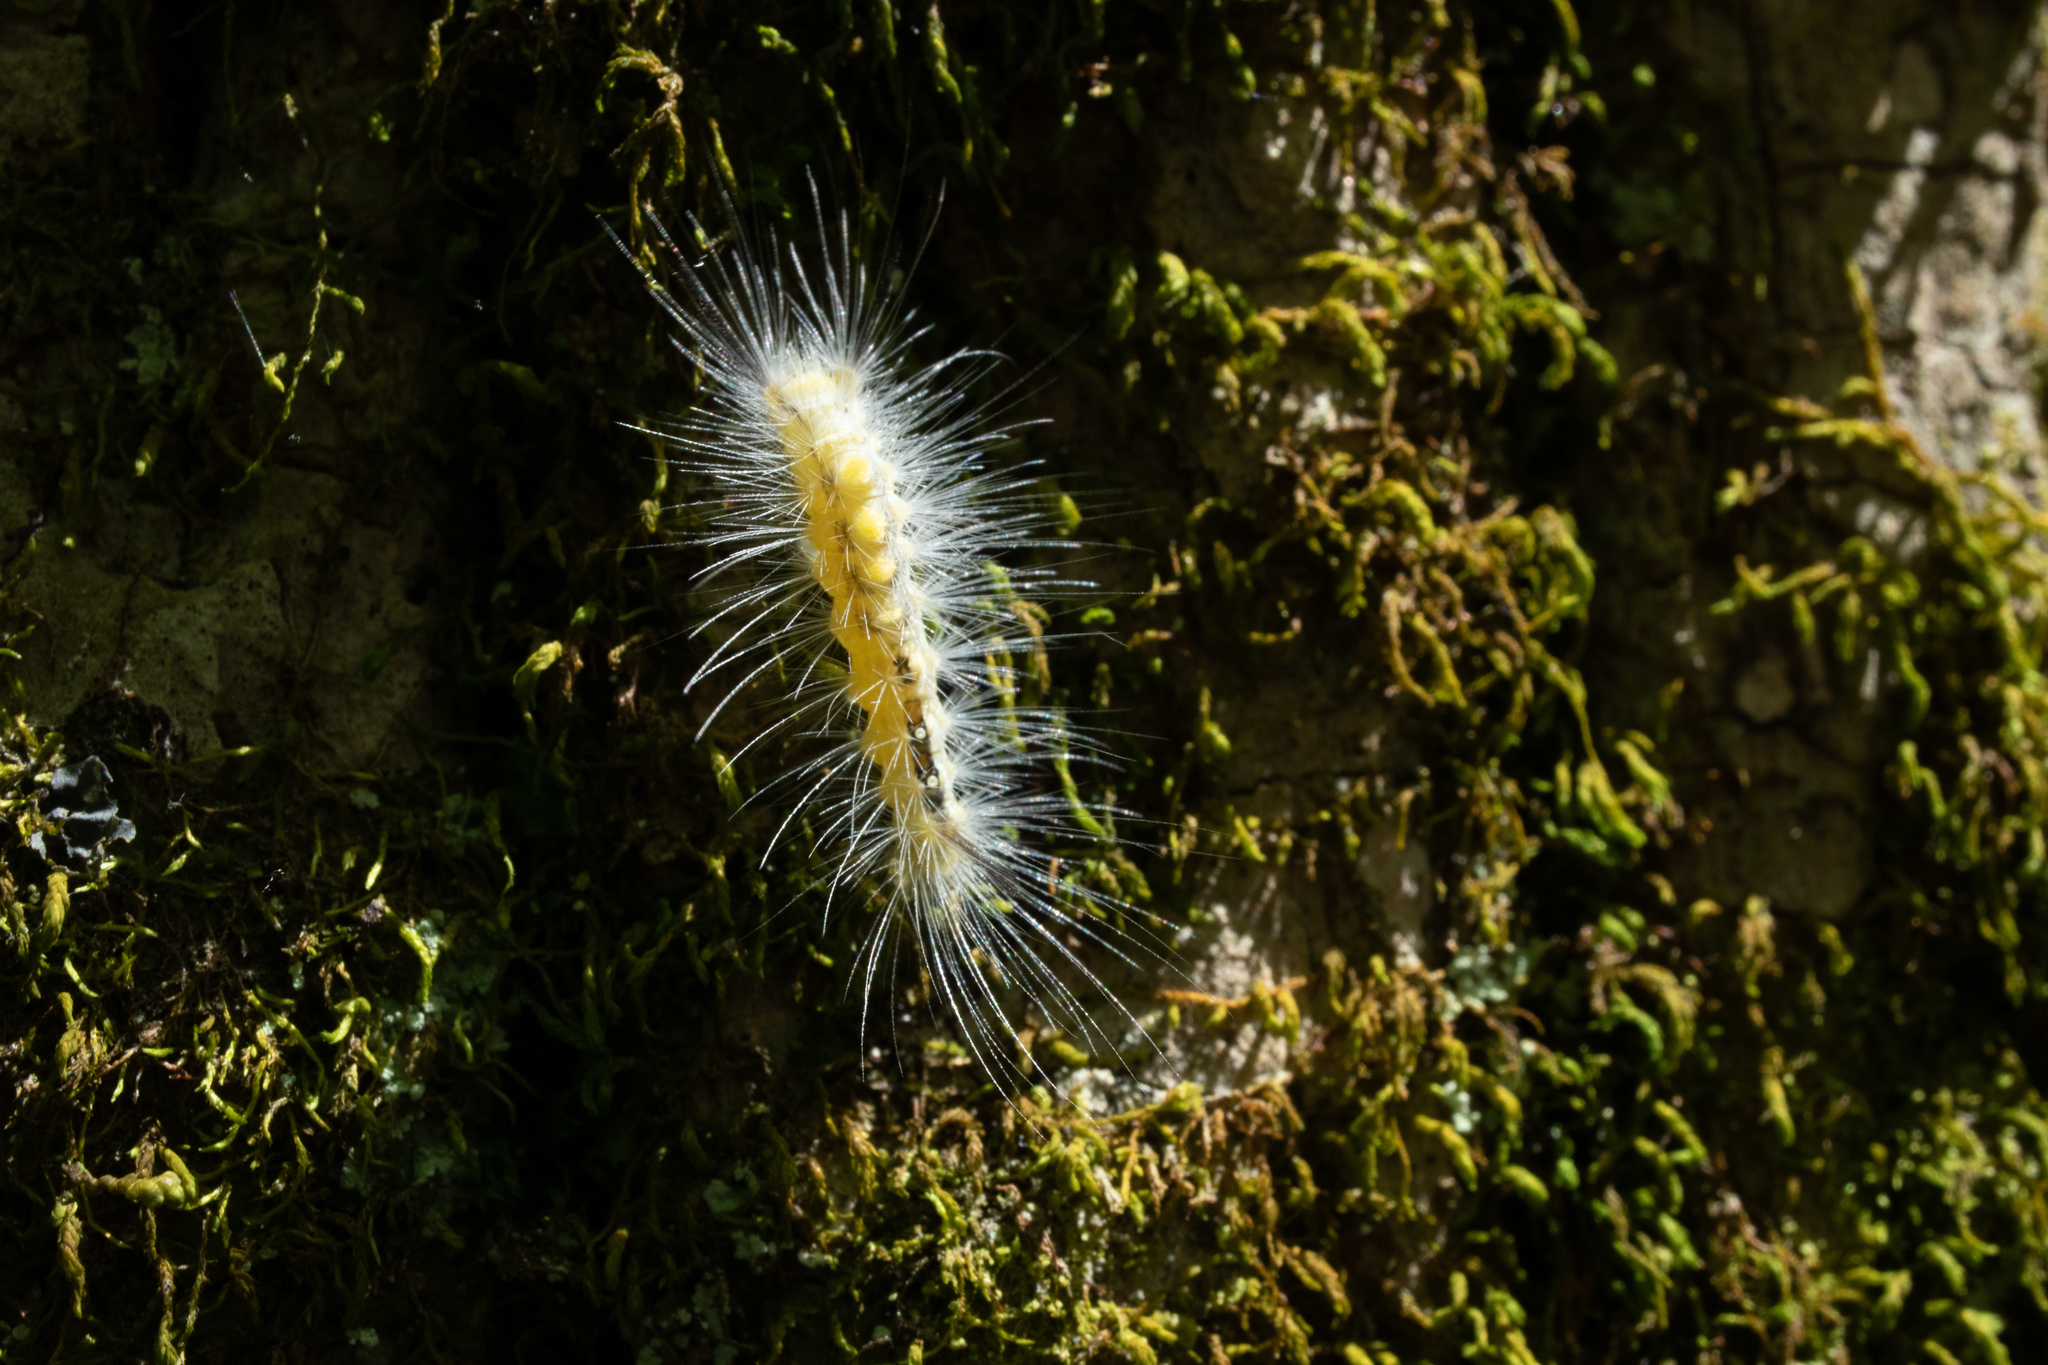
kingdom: Animalia
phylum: Arthropoda
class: Insecta
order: Lepidoptera
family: Erebidae
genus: Orgyia
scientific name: Orgyia definita
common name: Definite tussock moth
